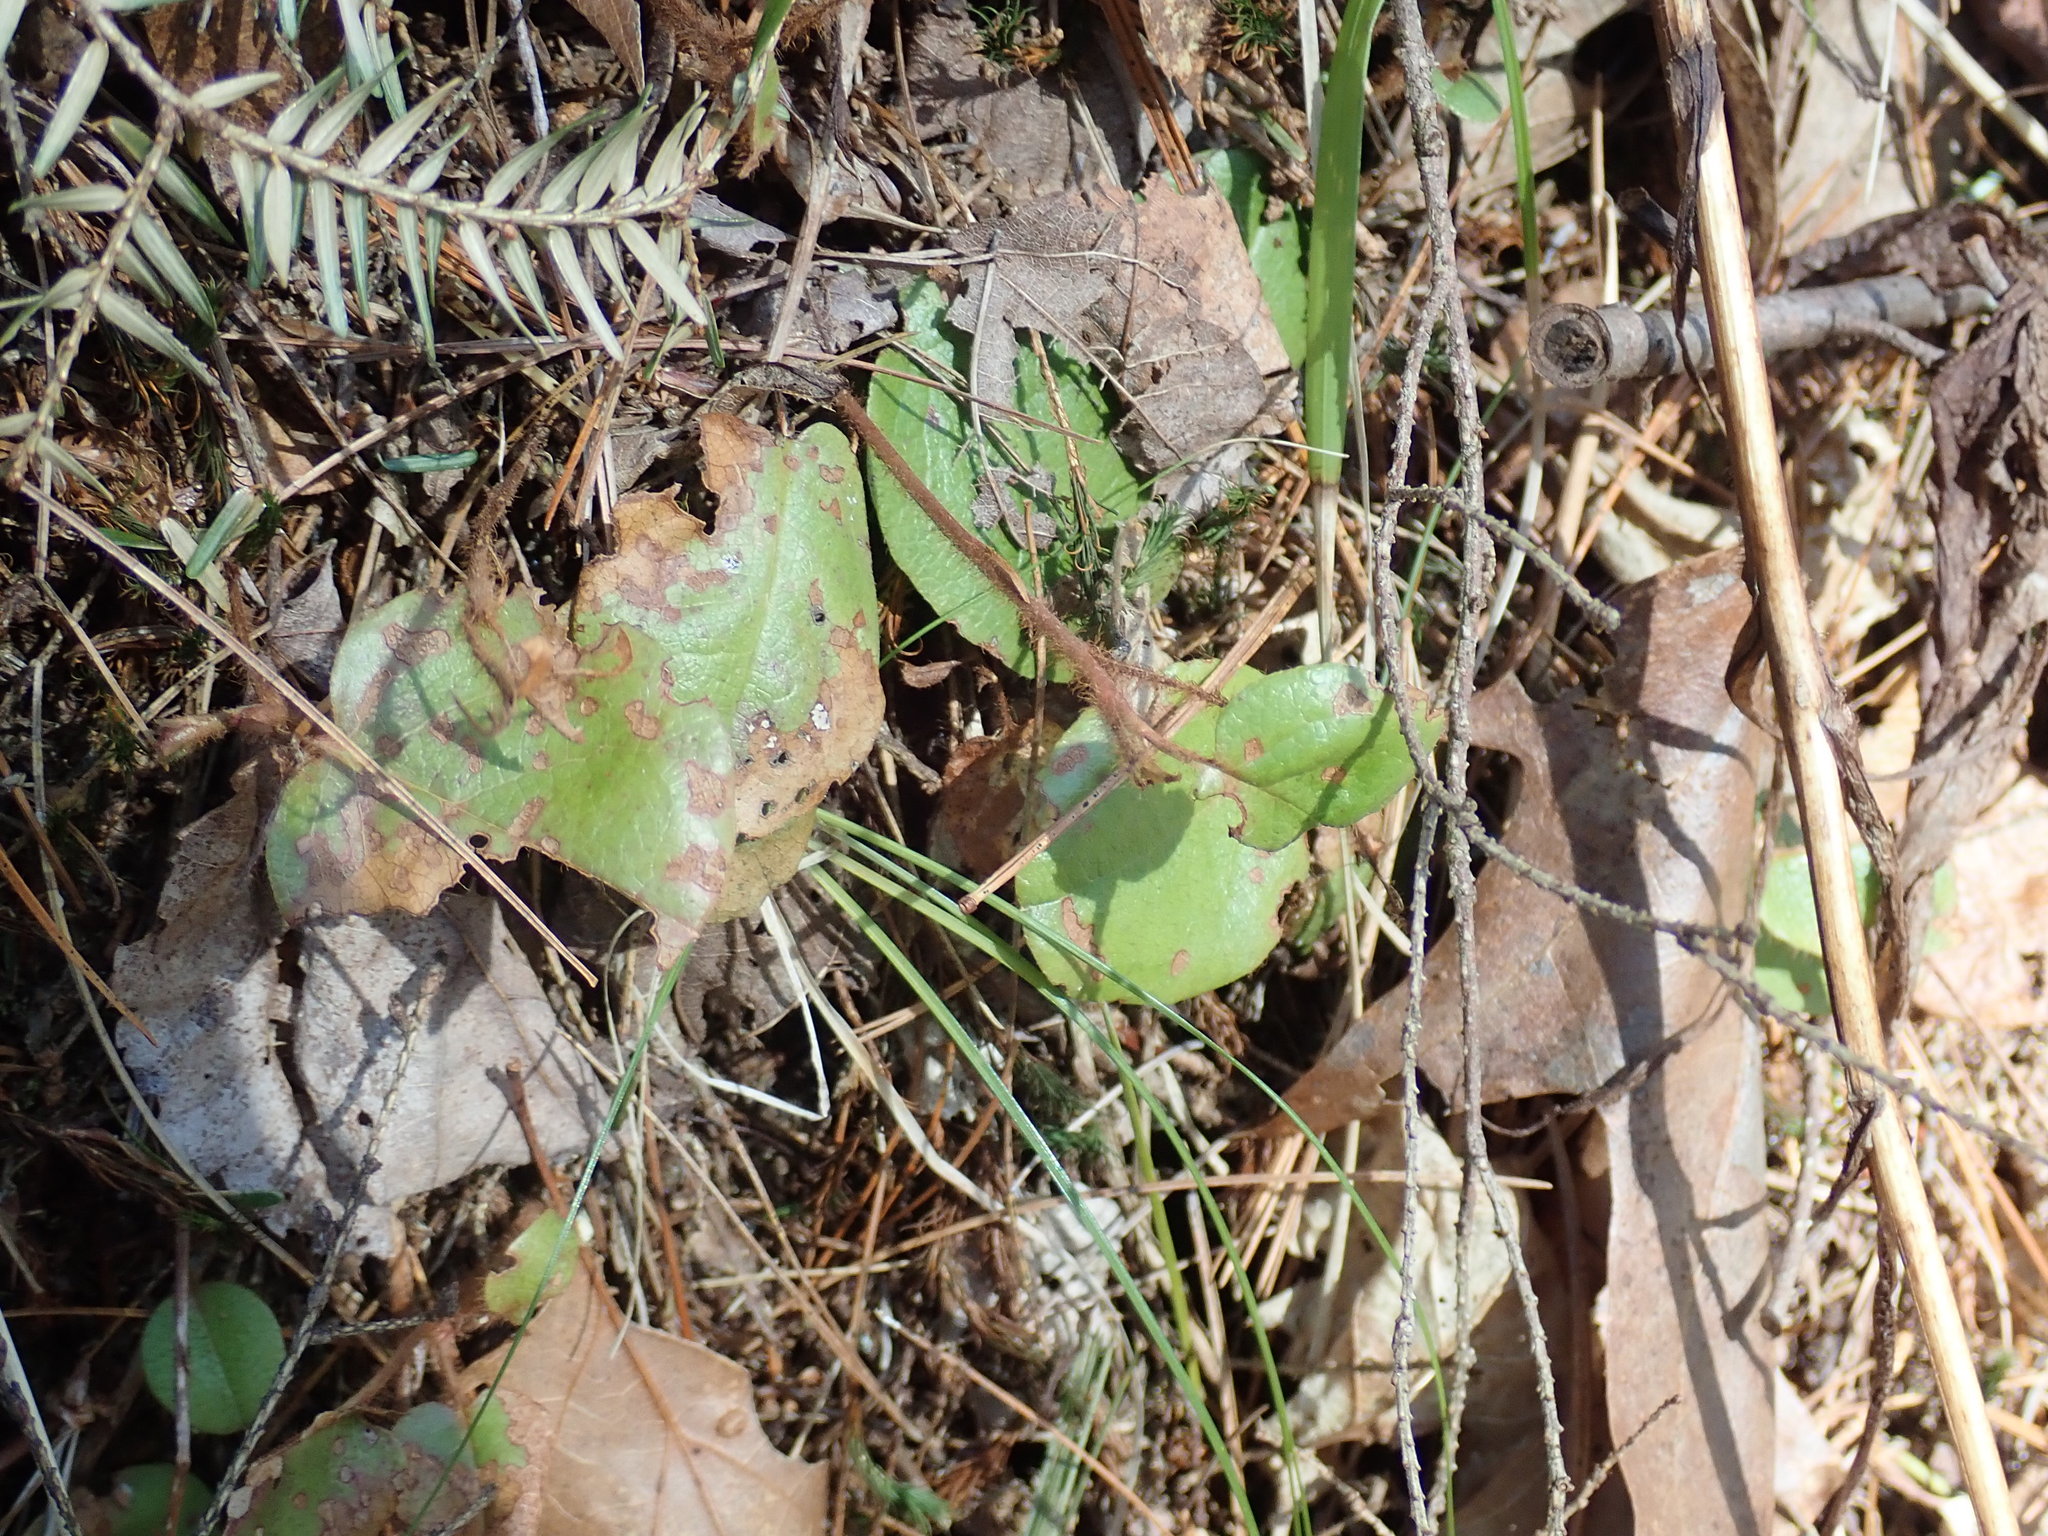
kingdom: Plantae
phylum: Tracheophyta
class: Magnoliopsida
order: Ericales
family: Ericaceae
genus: Epigaea
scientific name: Epigaea repens
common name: Gravelroot
